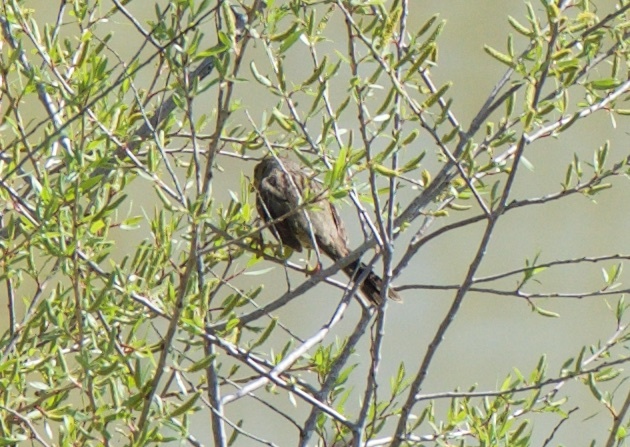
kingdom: Animalia
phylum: Chordata
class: Aves
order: Passeriformes
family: Passerellidae
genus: Zonotrichia
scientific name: Zonotrichia atricapilla
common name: Golden-crowned sparrow
